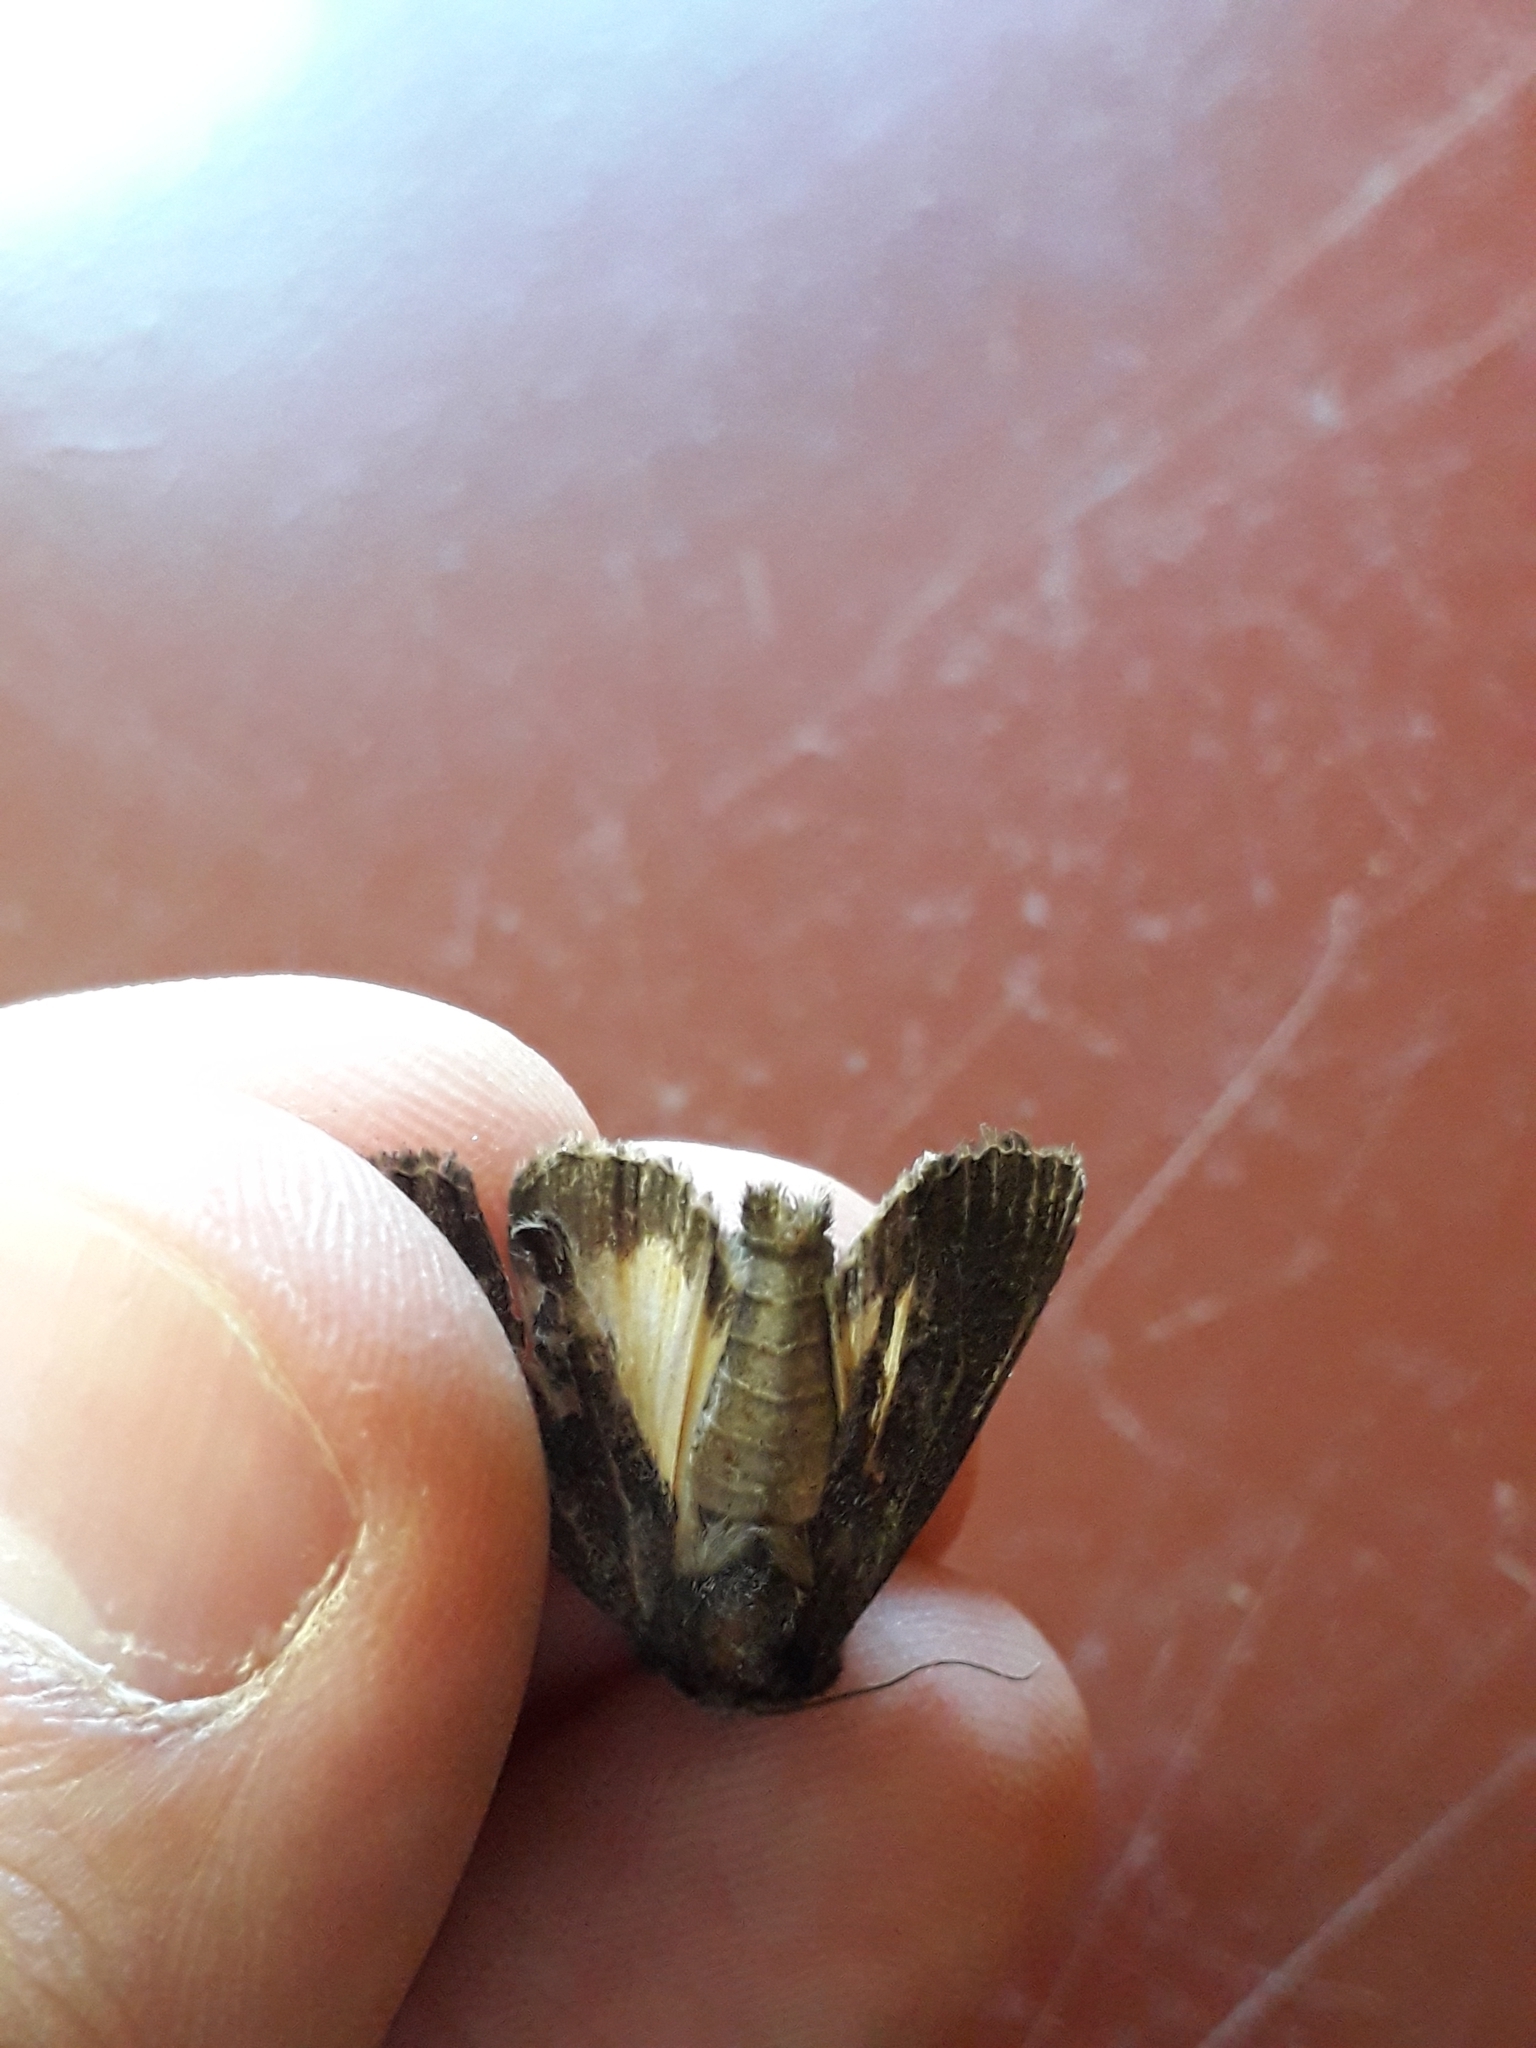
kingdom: Animalia
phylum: Arthropoda
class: Insecta
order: Lepidoptera
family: Noctuidae
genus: Thalpophila
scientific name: Thalpophila matura
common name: Straw underwing
